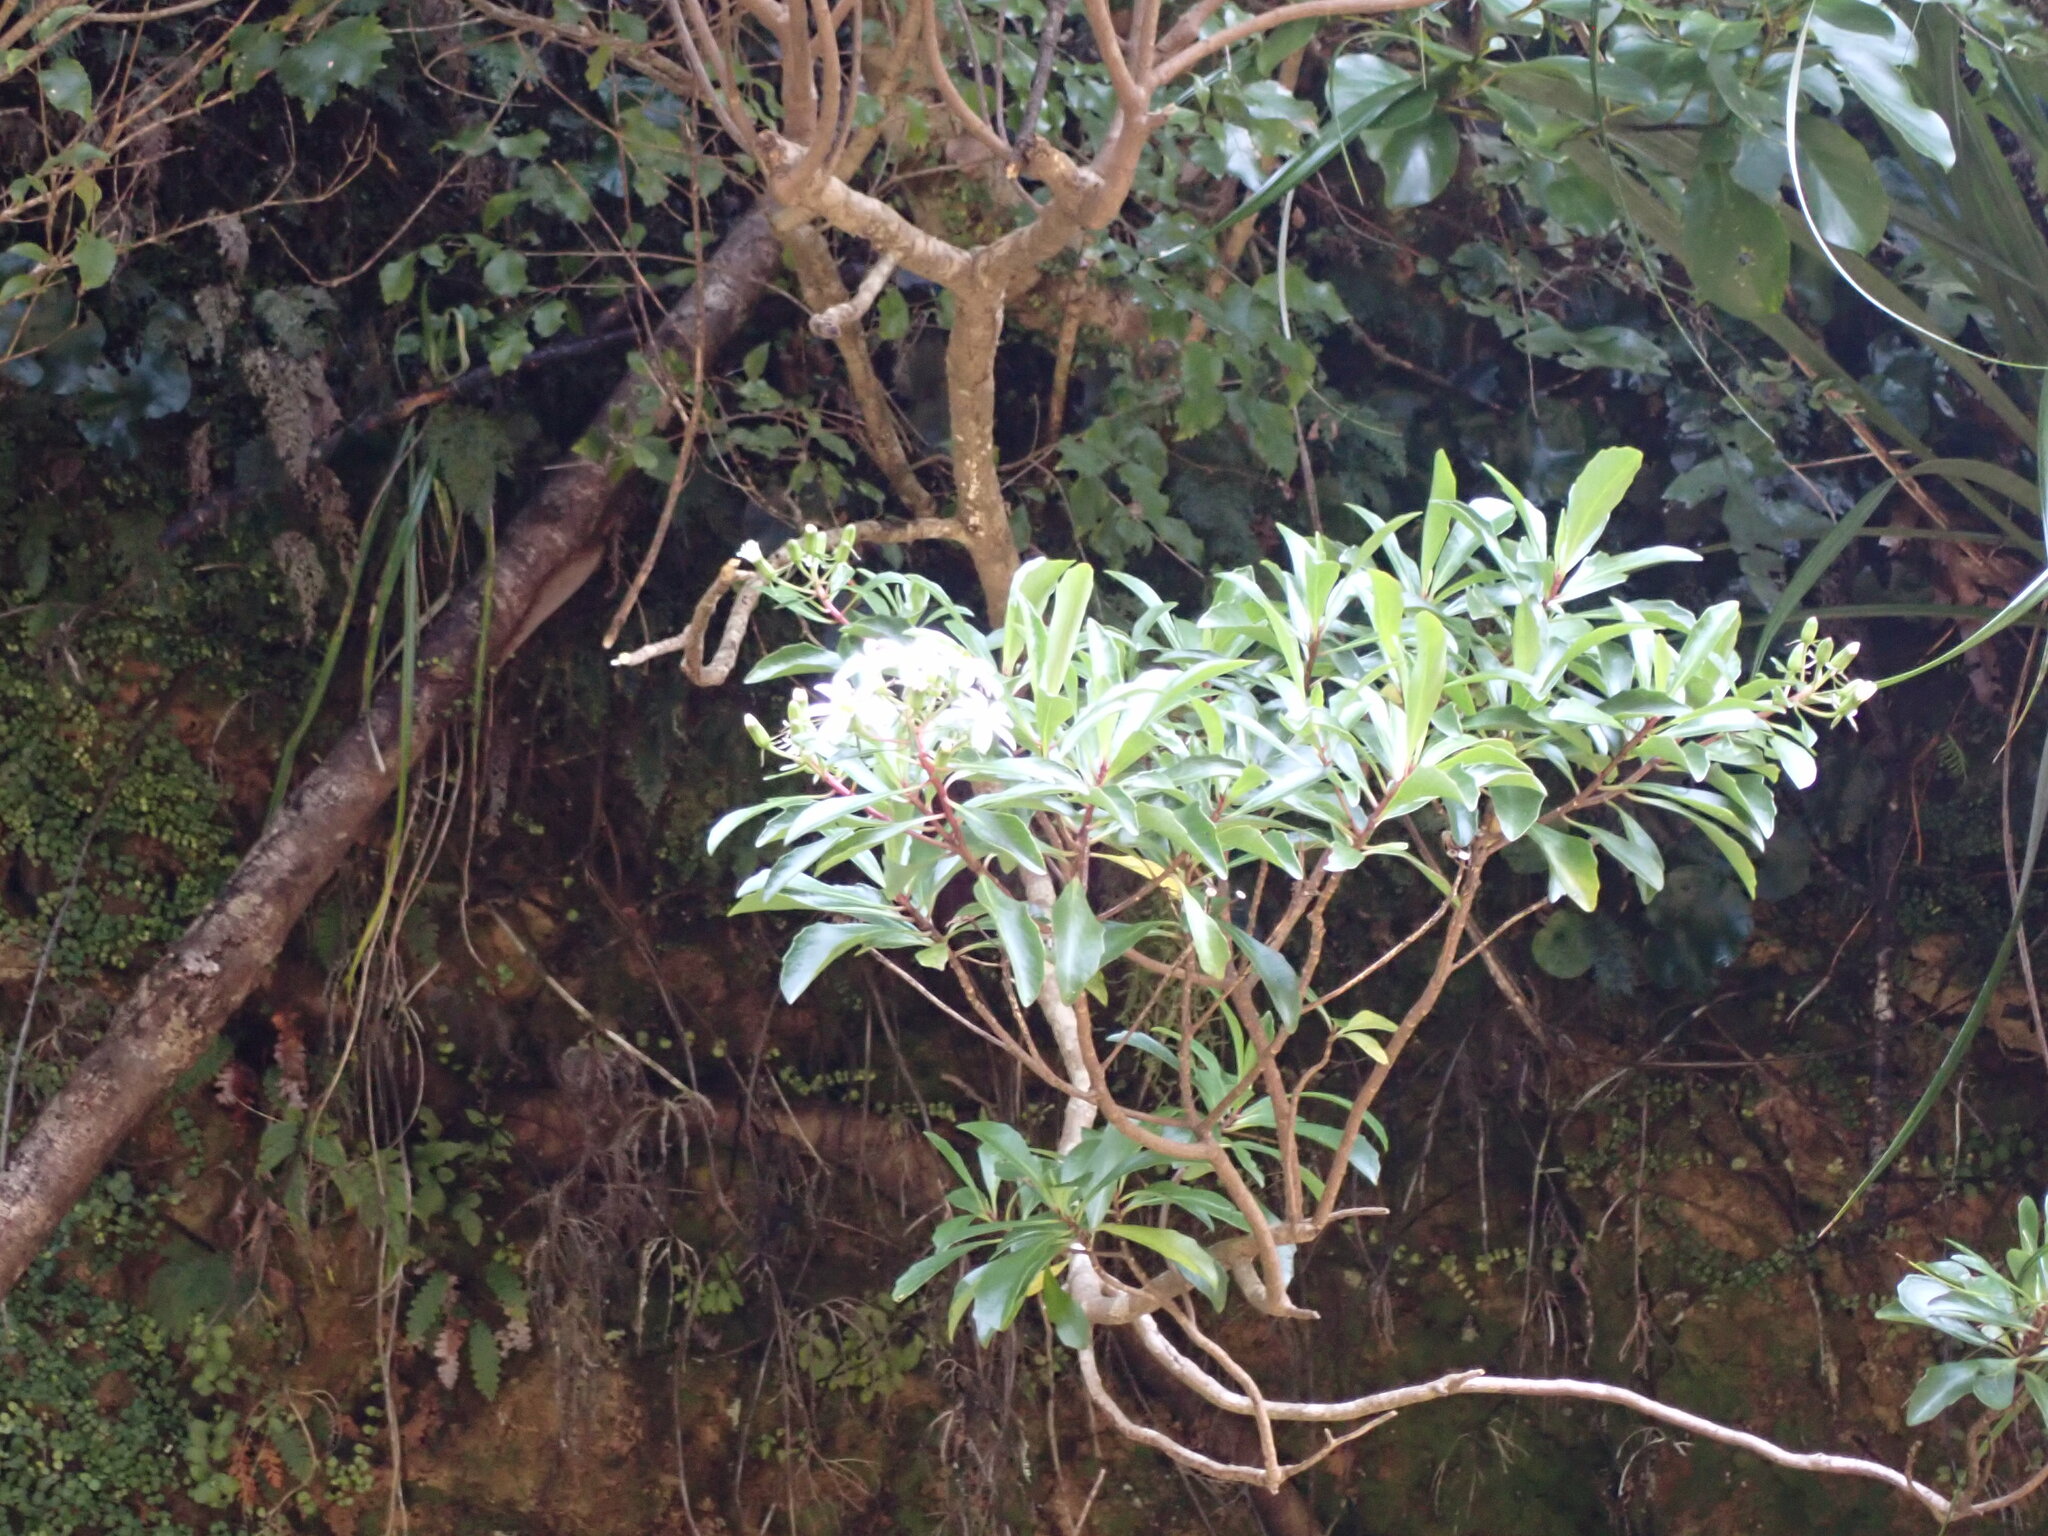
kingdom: Plantae
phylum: Tracheophyta
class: Magnoliopsida
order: Asterales
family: Asteraceae
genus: Brachyglottis
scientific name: Brachyglottis kirkii
